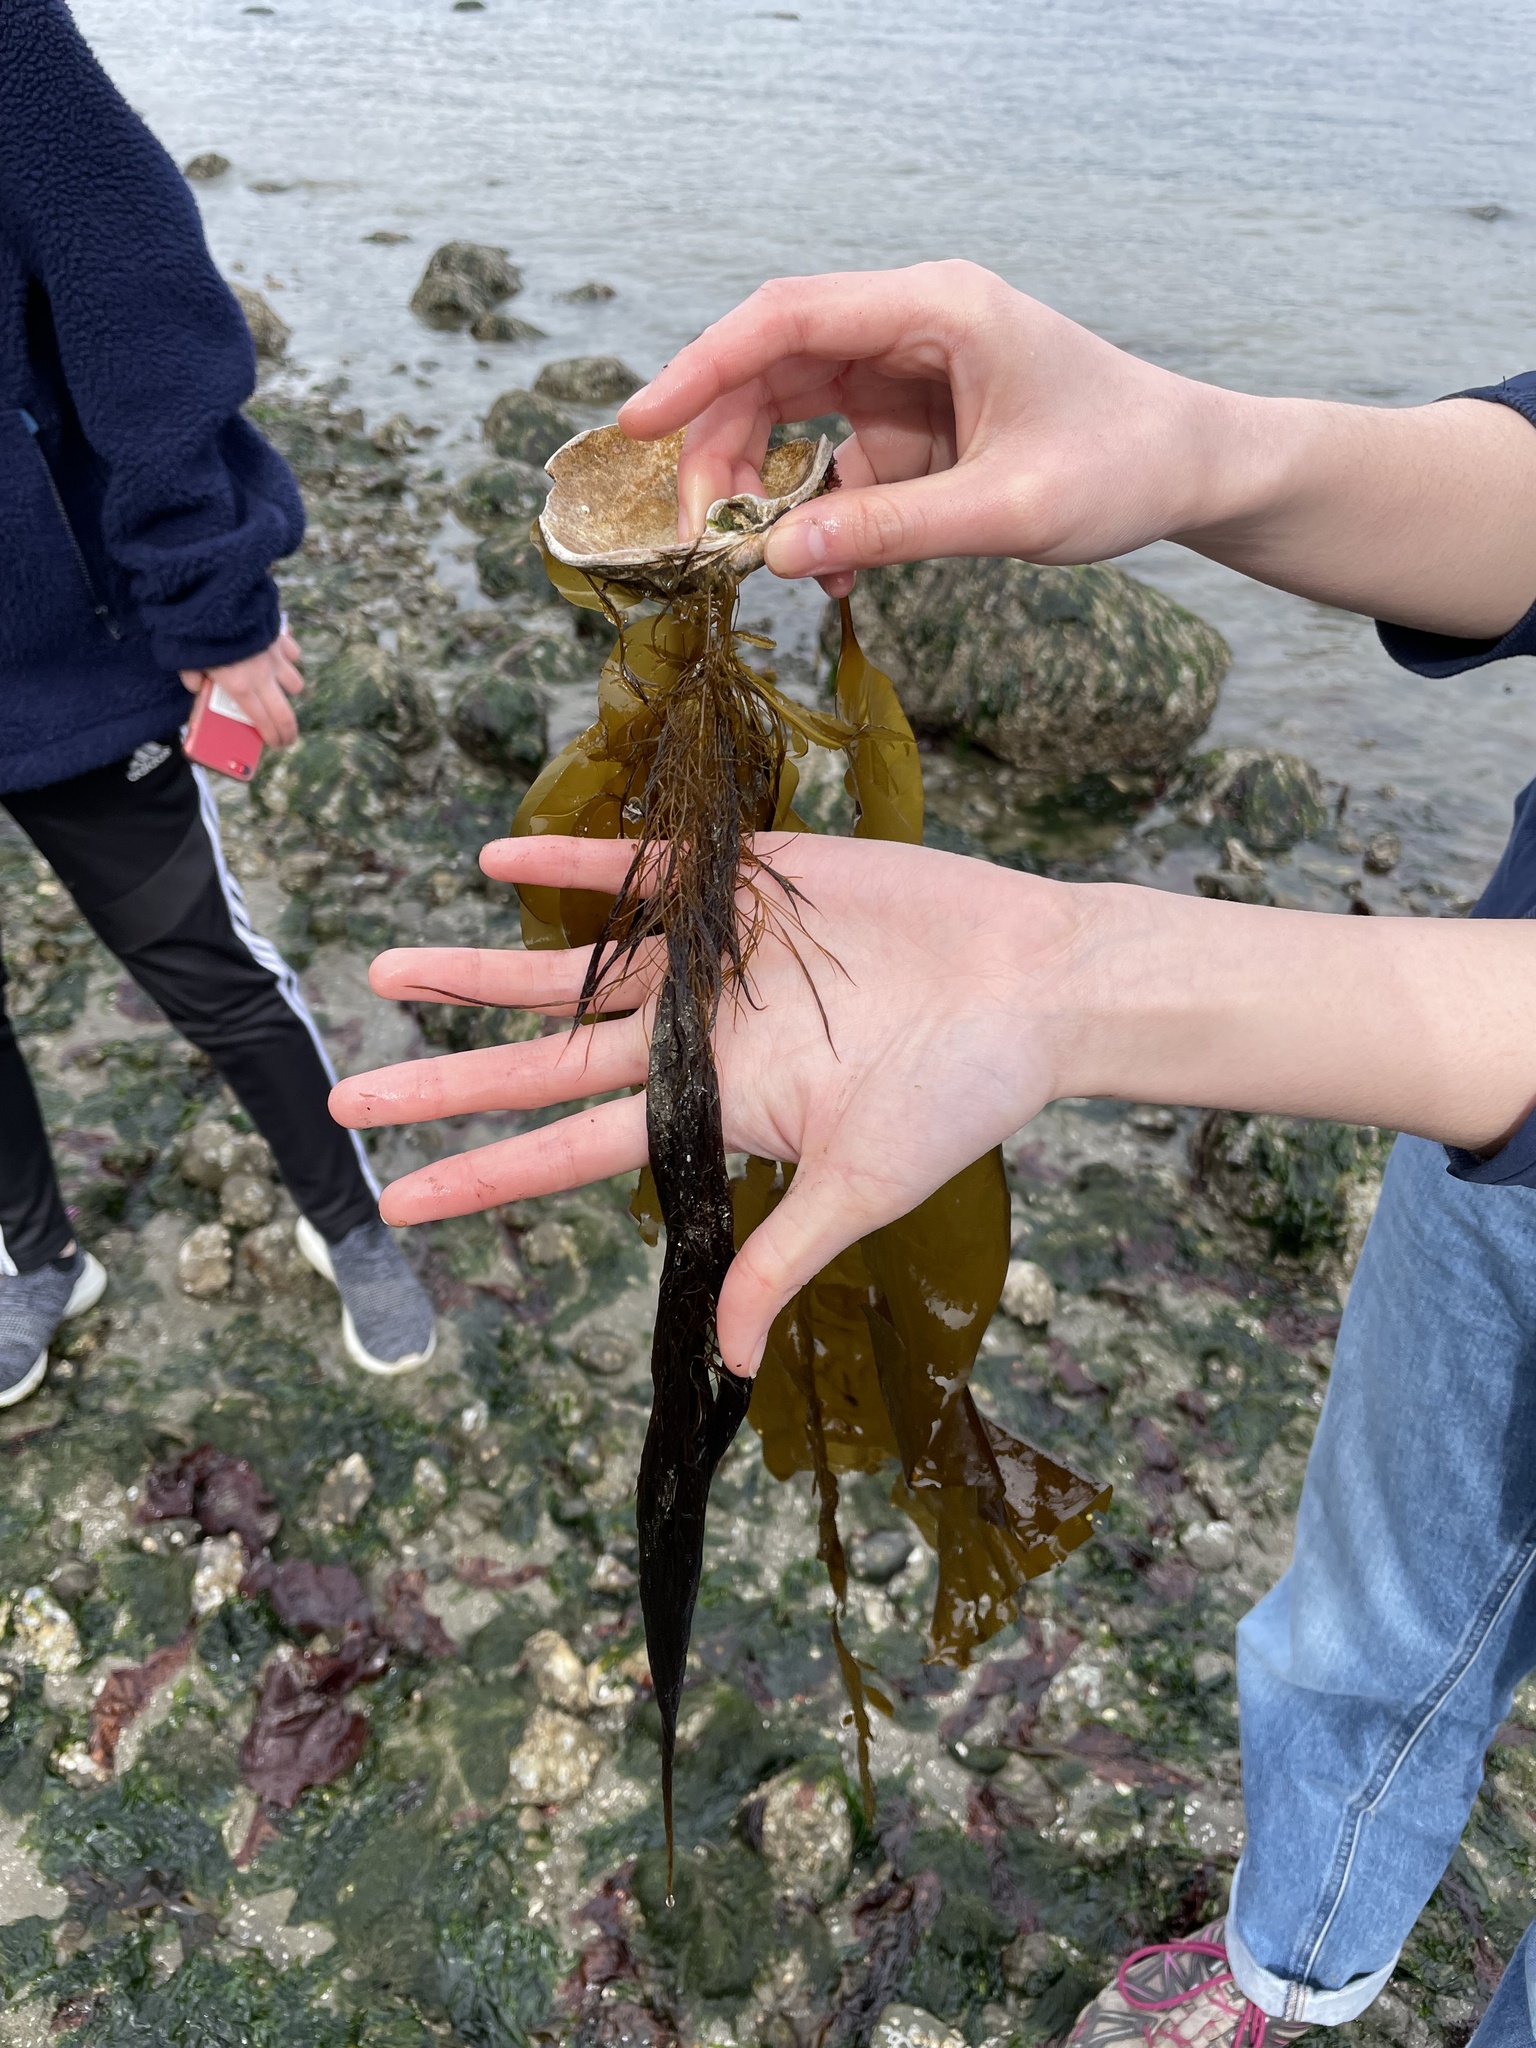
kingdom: Chromista
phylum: Ochrophyta
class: Phaeophyceae
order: Desmarestiales
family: Desmarestiaceae
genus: Desmarestia
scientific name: Desmarestia viridis
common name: Stringy acid kelp
